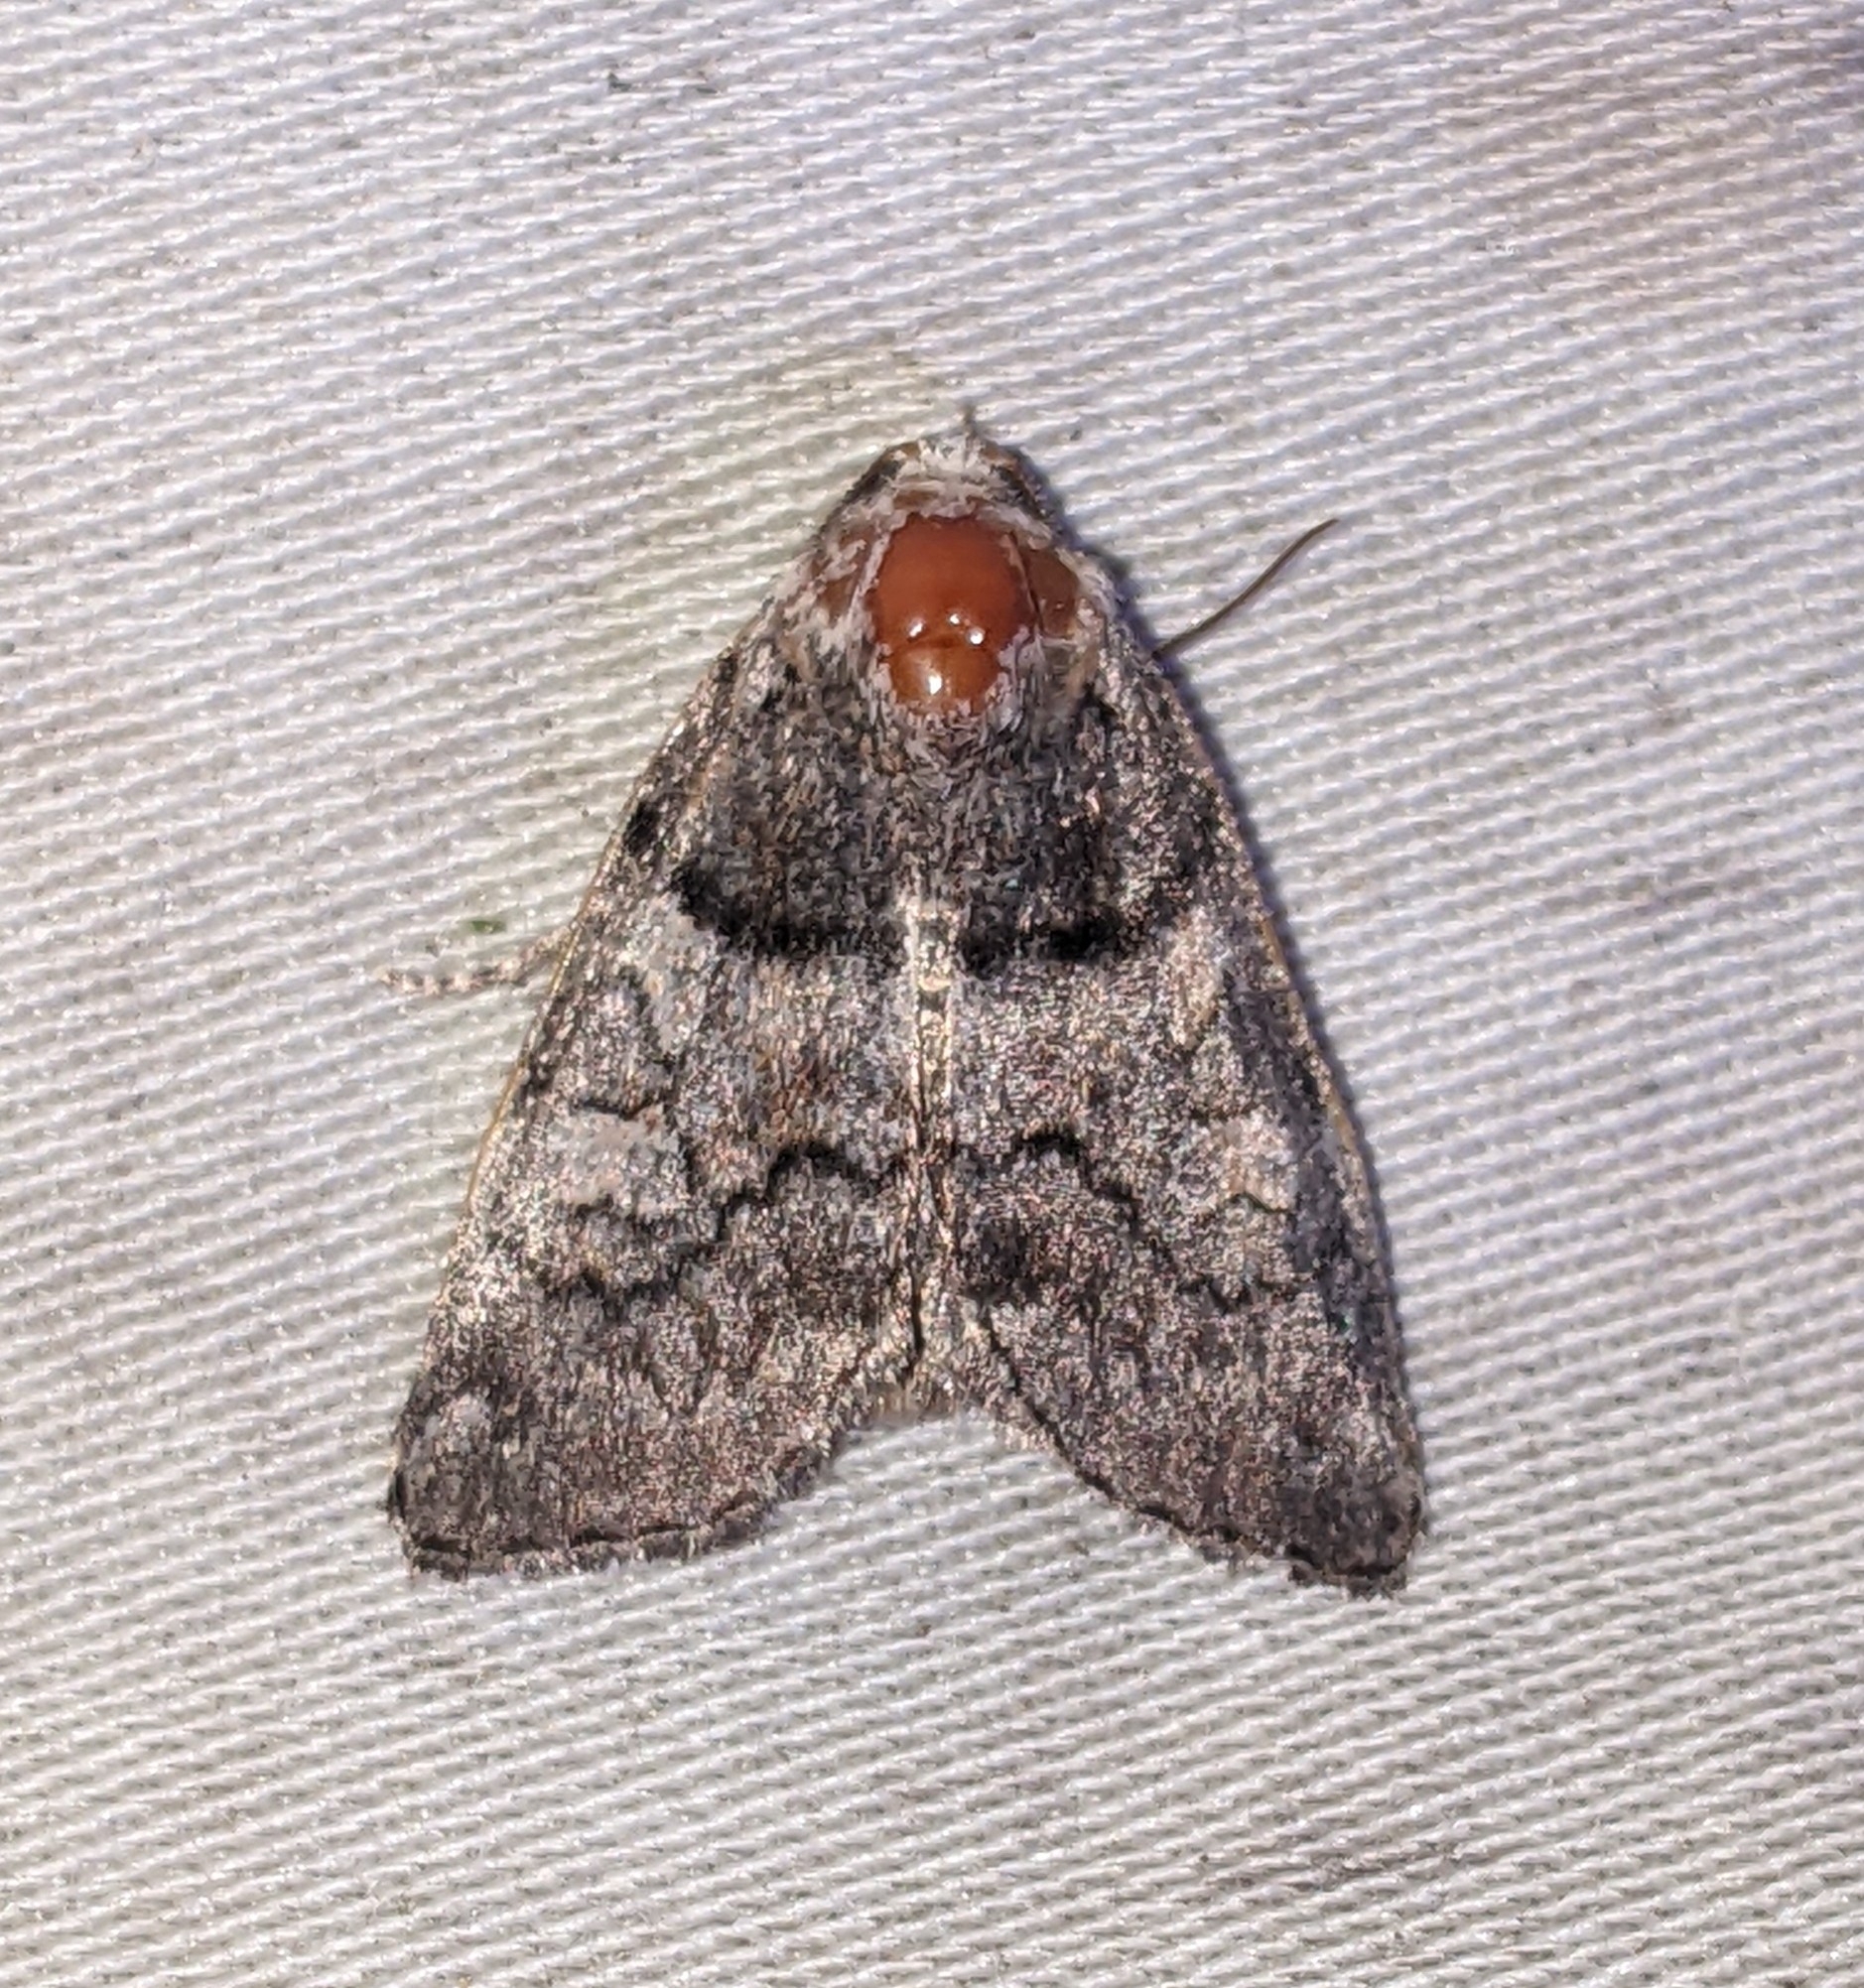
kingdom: Animalia
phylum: Arthropoda
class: Insecta
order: Lepidoptera
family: Noctuidae
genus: Cosmia
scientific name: Cosmia praeacuta
